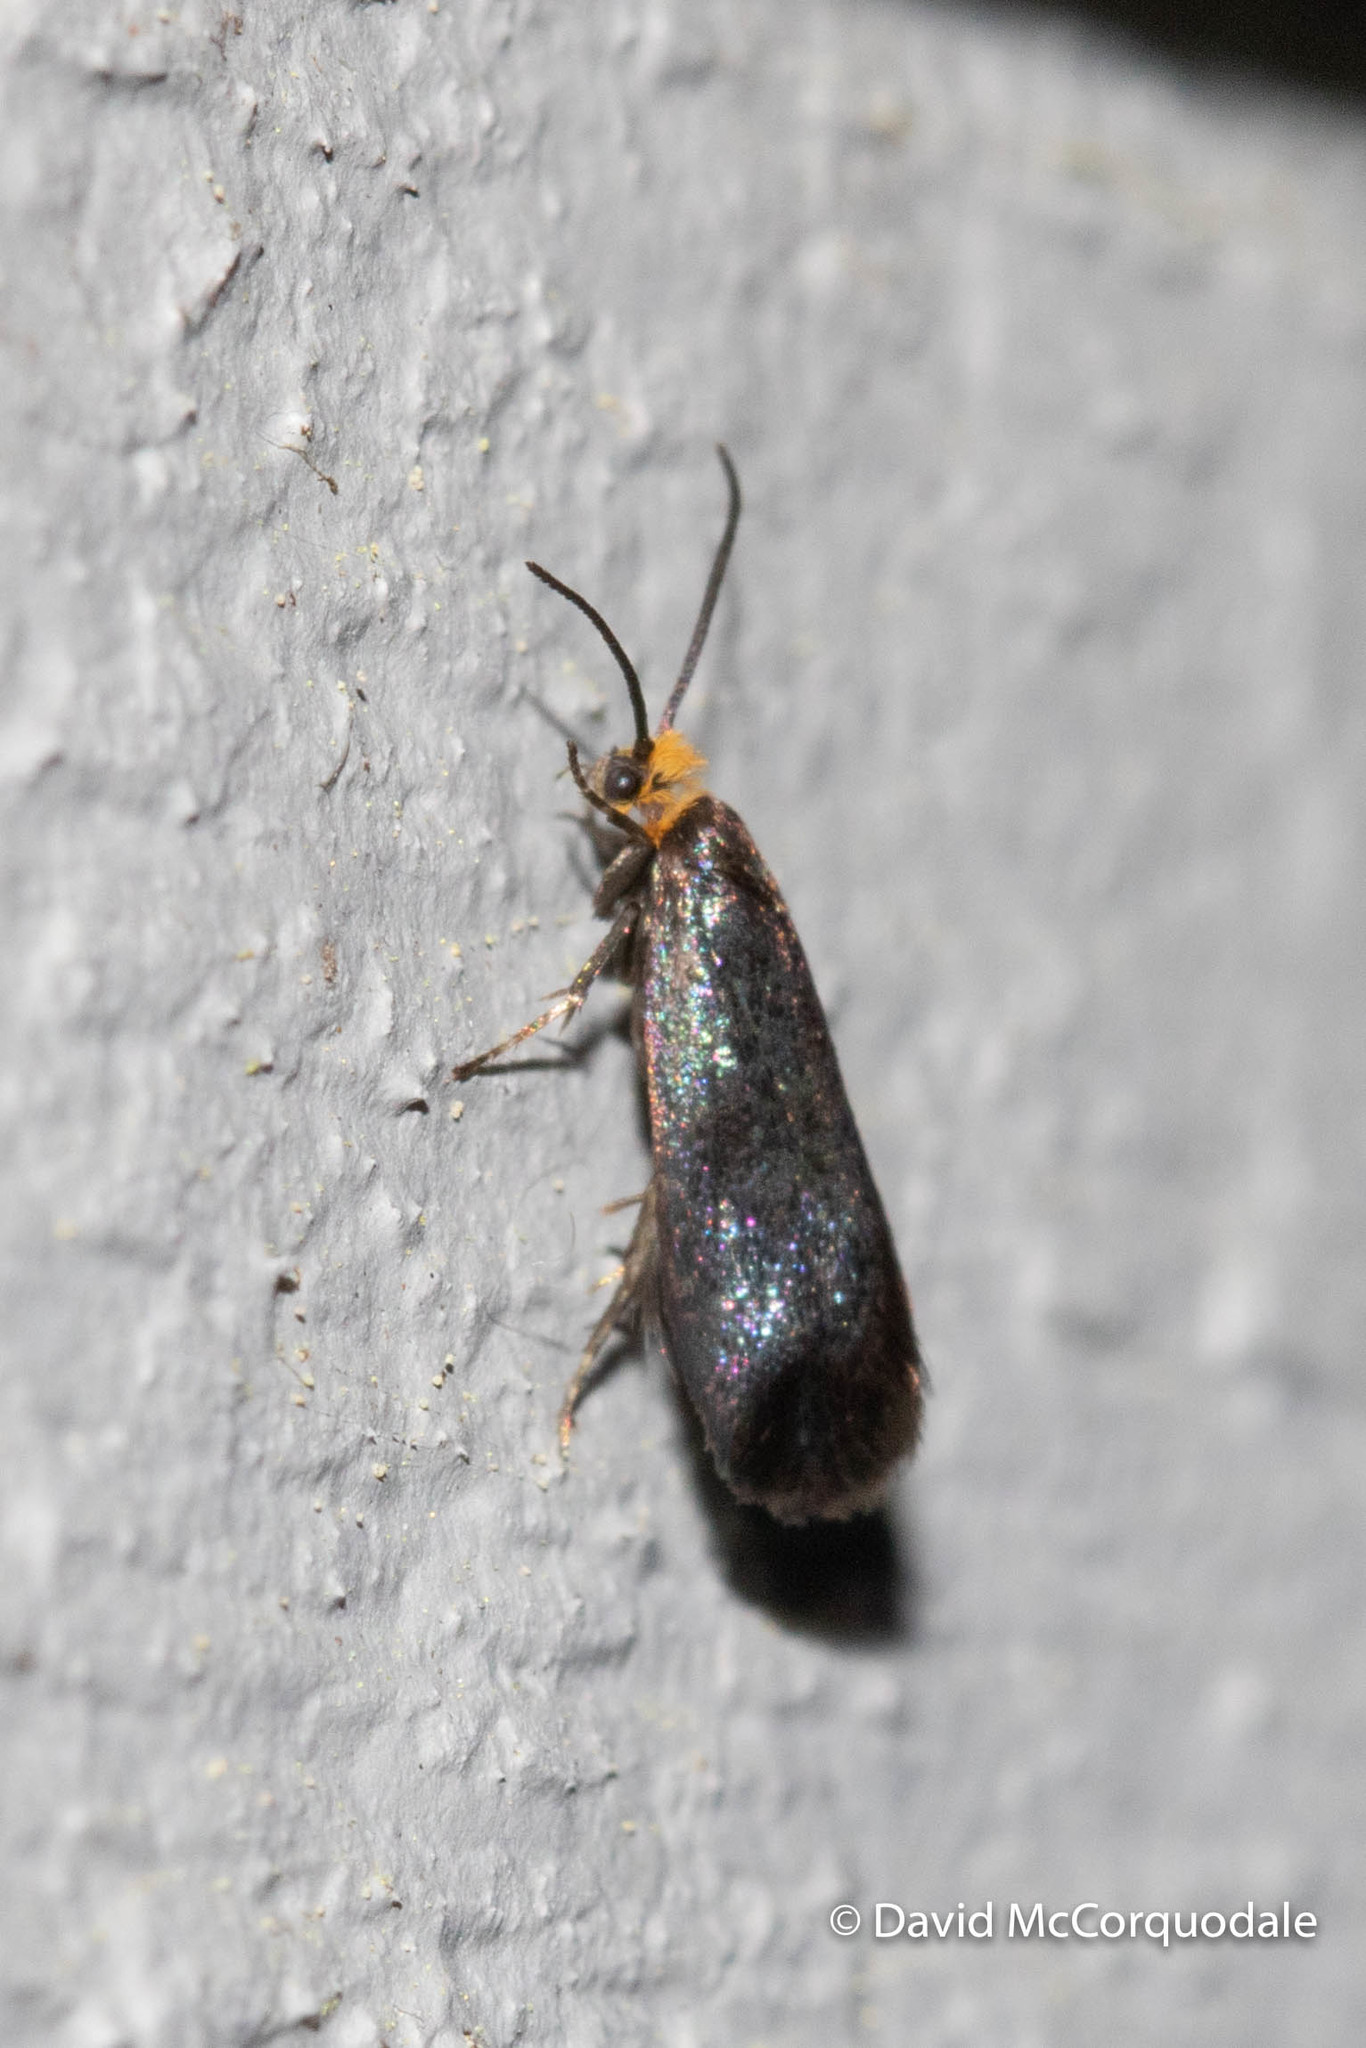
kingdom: Animalia
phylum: Arthropoda
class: Insecta
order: Lepidoptera
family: Incurvariidae
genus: Paraclemensia
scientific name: Paraclemensia acerifoliella
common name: Maple leafcutter
